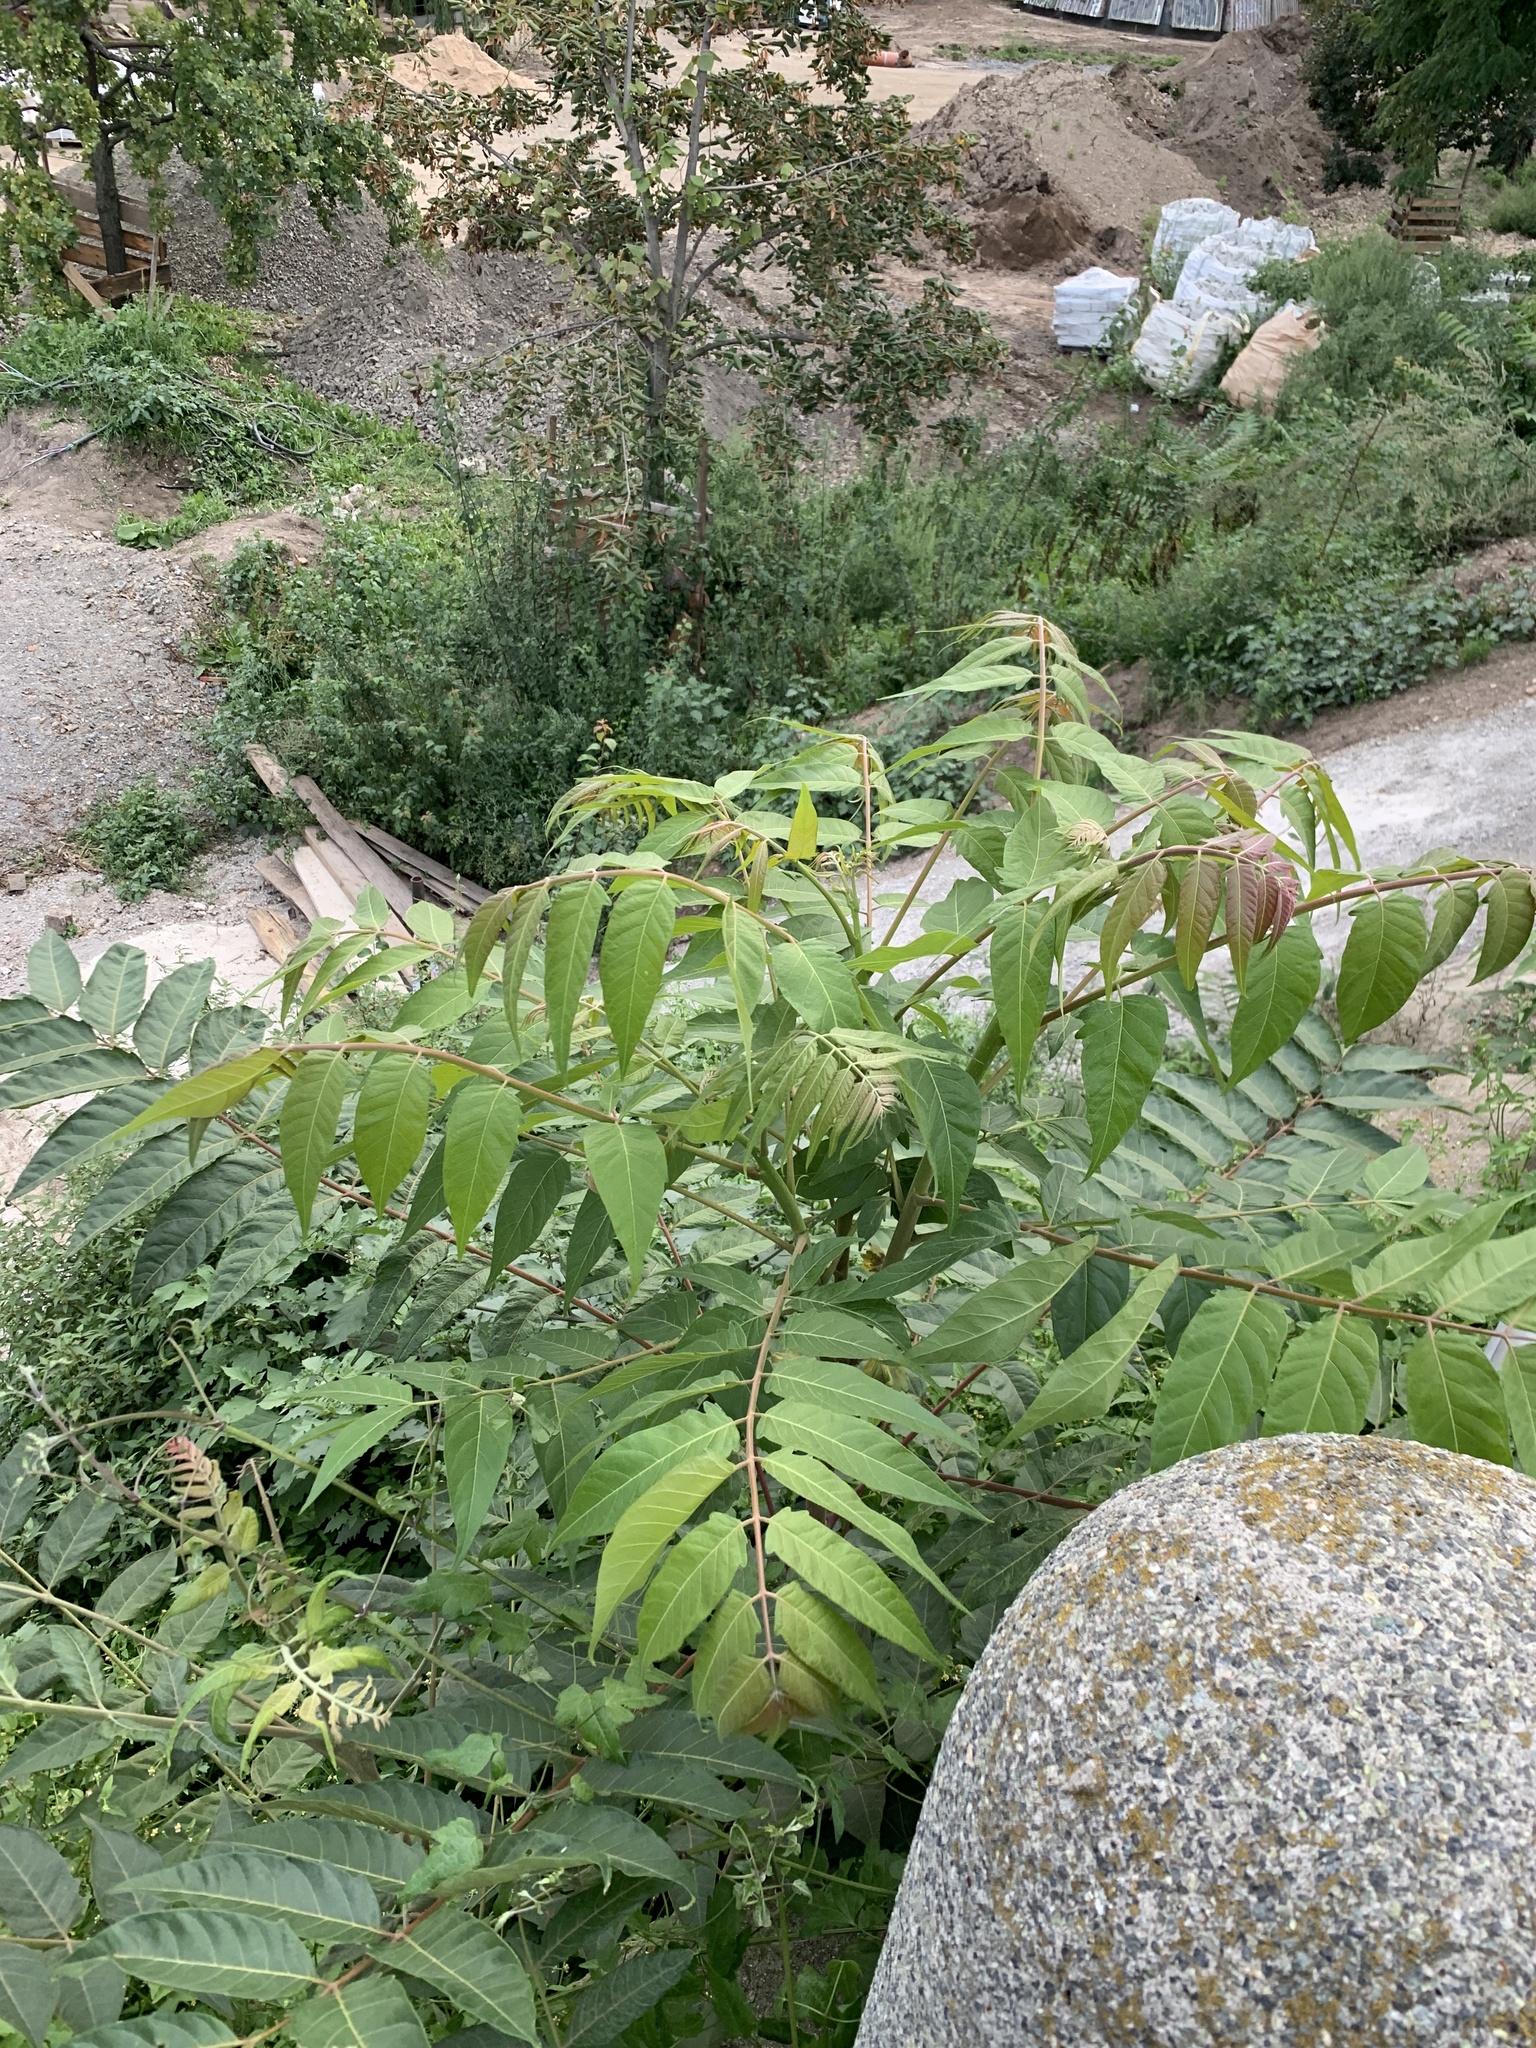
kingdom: Plantae
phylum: Tracheophyta
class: Magnoliopsida
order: Sapindales
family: Simaroubaceae
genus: Ailanthus
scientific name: Ailanthus altissima
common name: Tree-of-heaven
